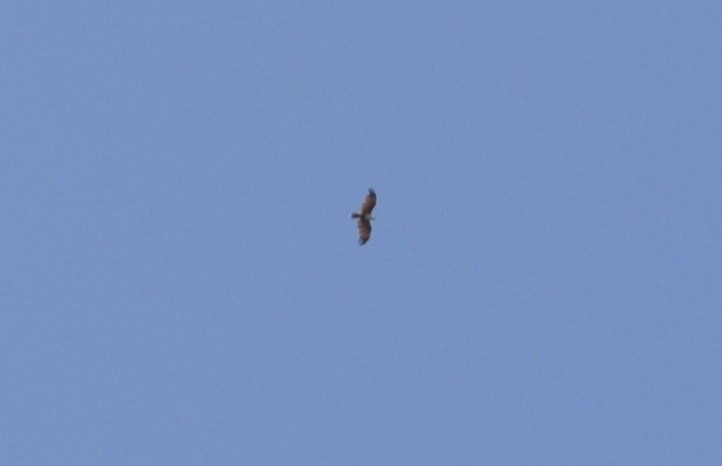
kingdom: Animalia
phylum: Chordata
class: Aves
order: Accipitriformes
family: Accipitridae
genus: Haliastur
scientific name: Haliastur indus
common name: Brahminy kite
